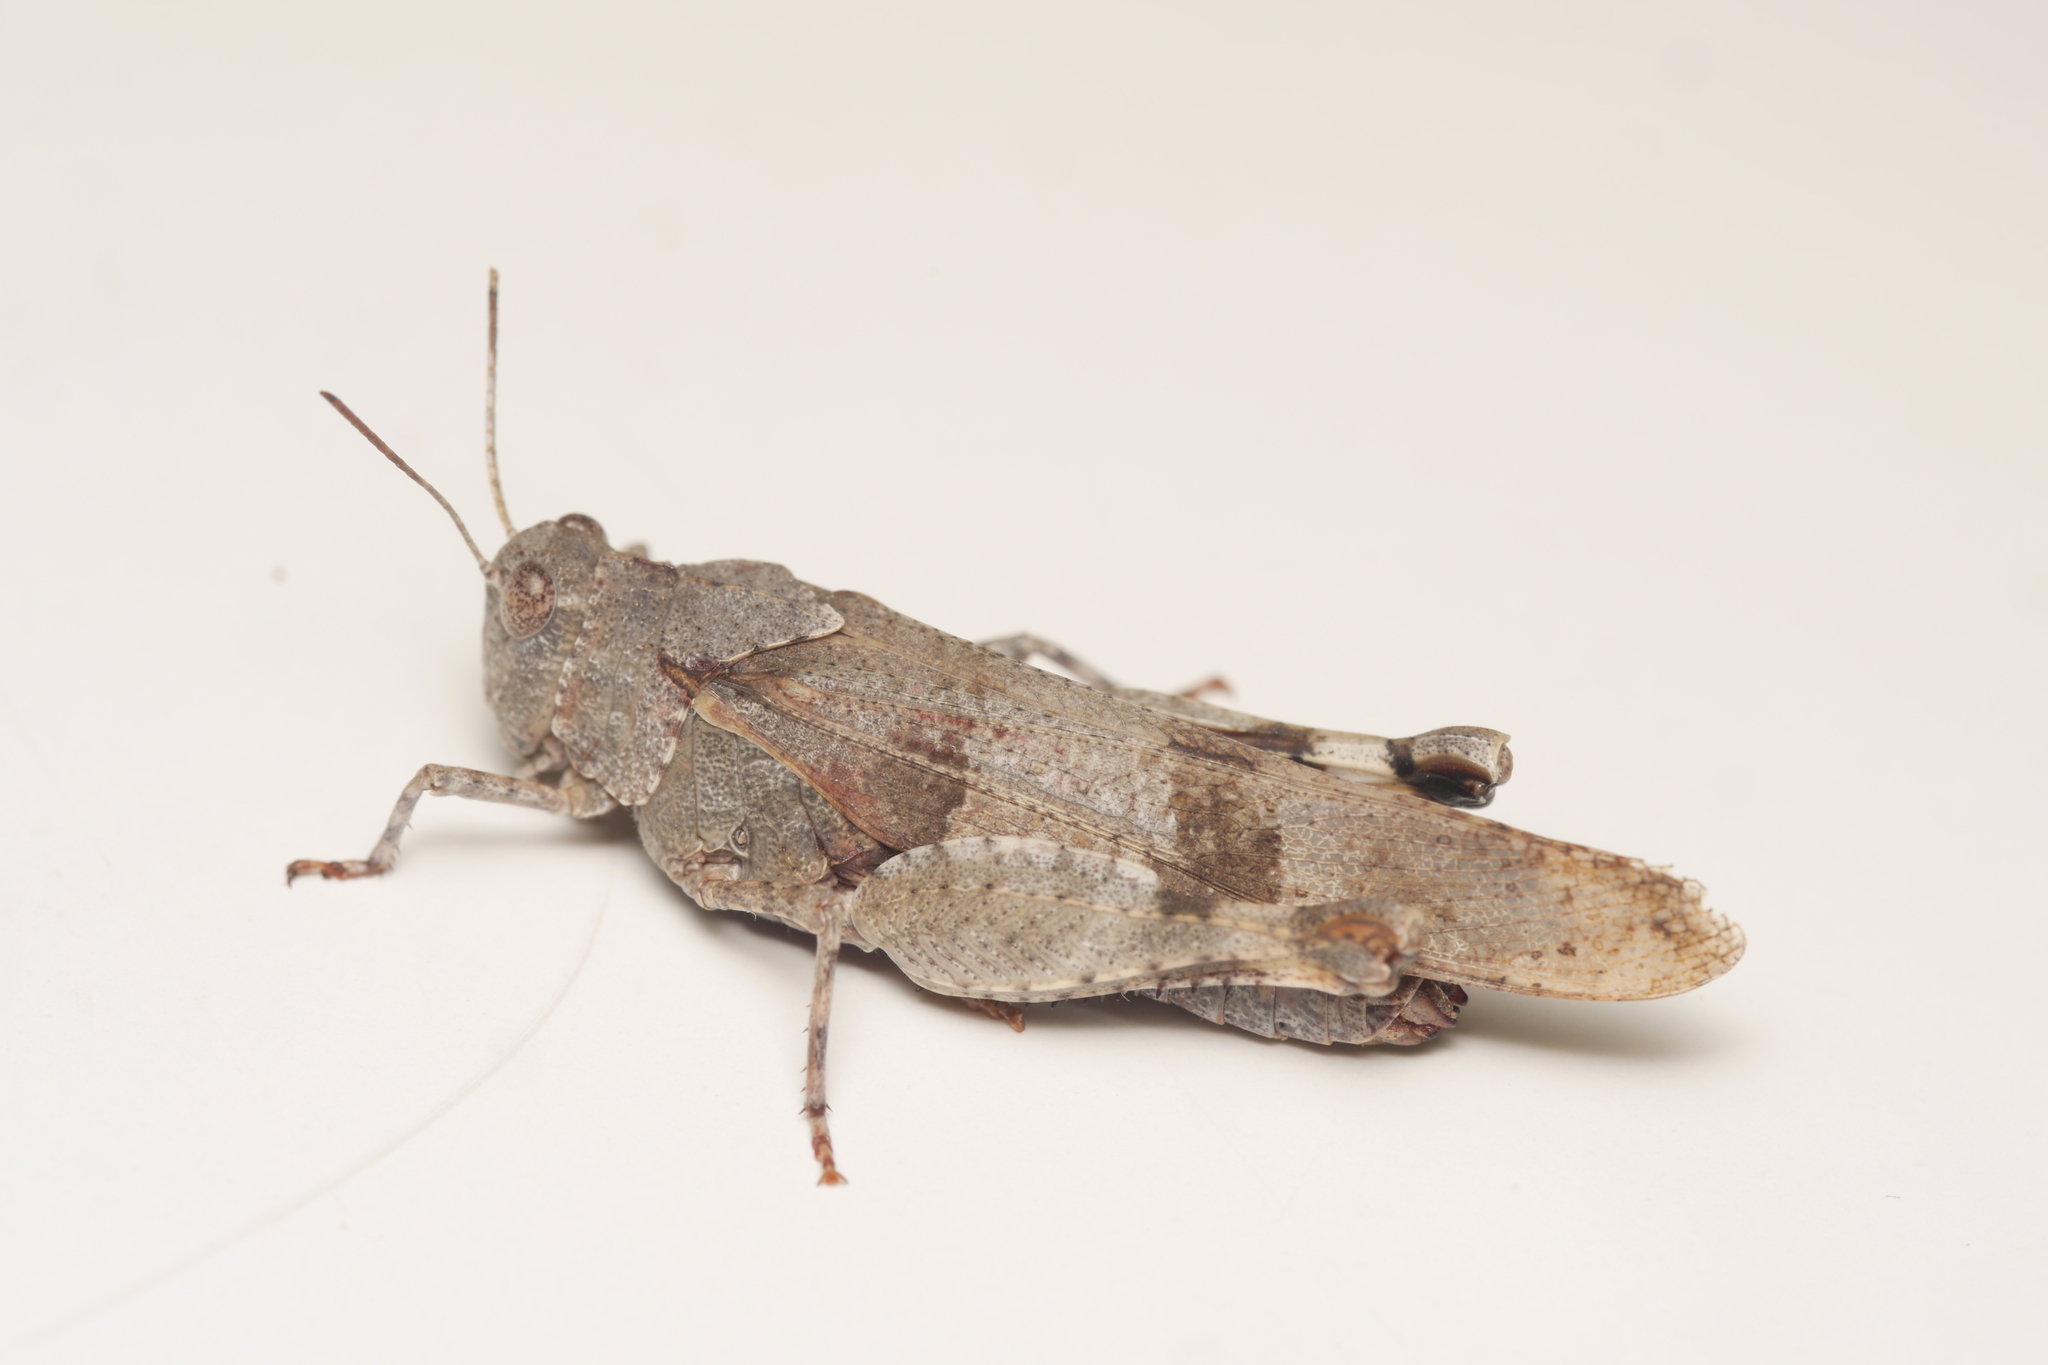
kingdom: Animalia
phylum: Arthropoda
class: Insecta
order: Orthoptera
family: Acrididae
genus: Oedipoda
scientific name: Oedipoda caerulescens
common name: Blue-winged grasshopper
